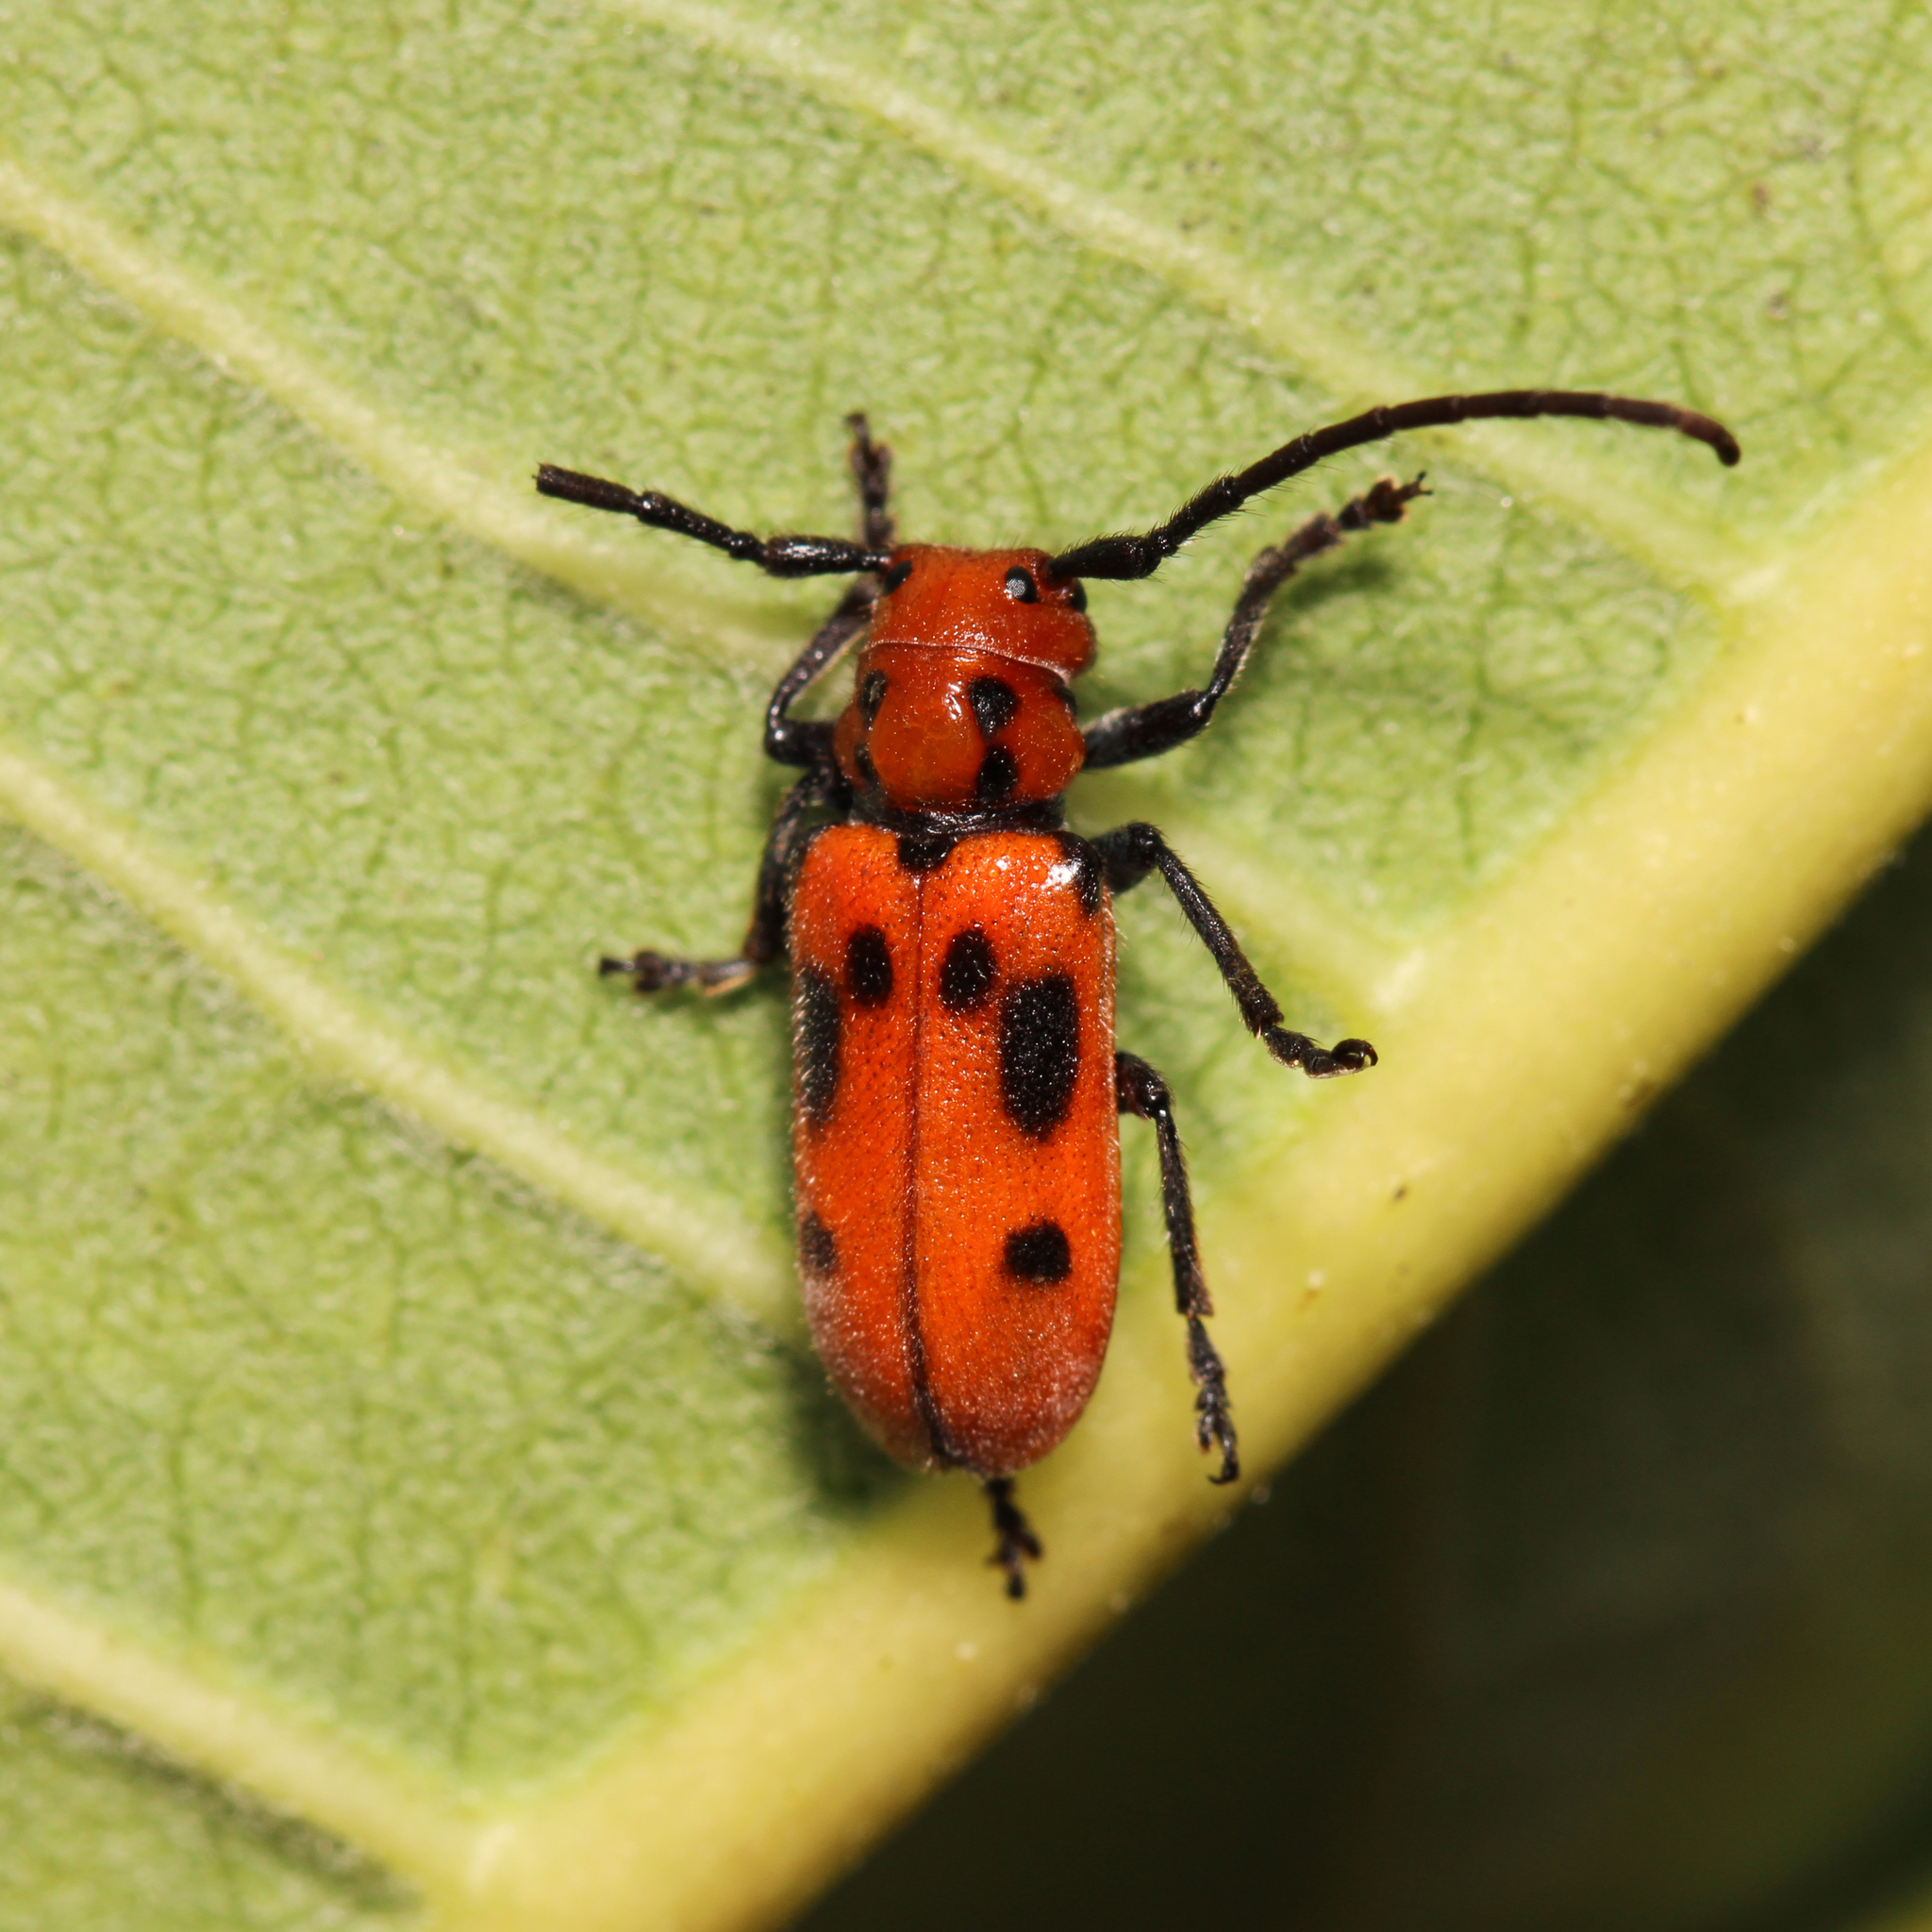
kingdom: Animalia
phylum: Arthropoda
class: Insecta
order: Coleoptera
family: Cerambycidae
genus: Tetraopes
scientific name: Tetraopes tetrophthalmus
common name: Red milkweed beetle
